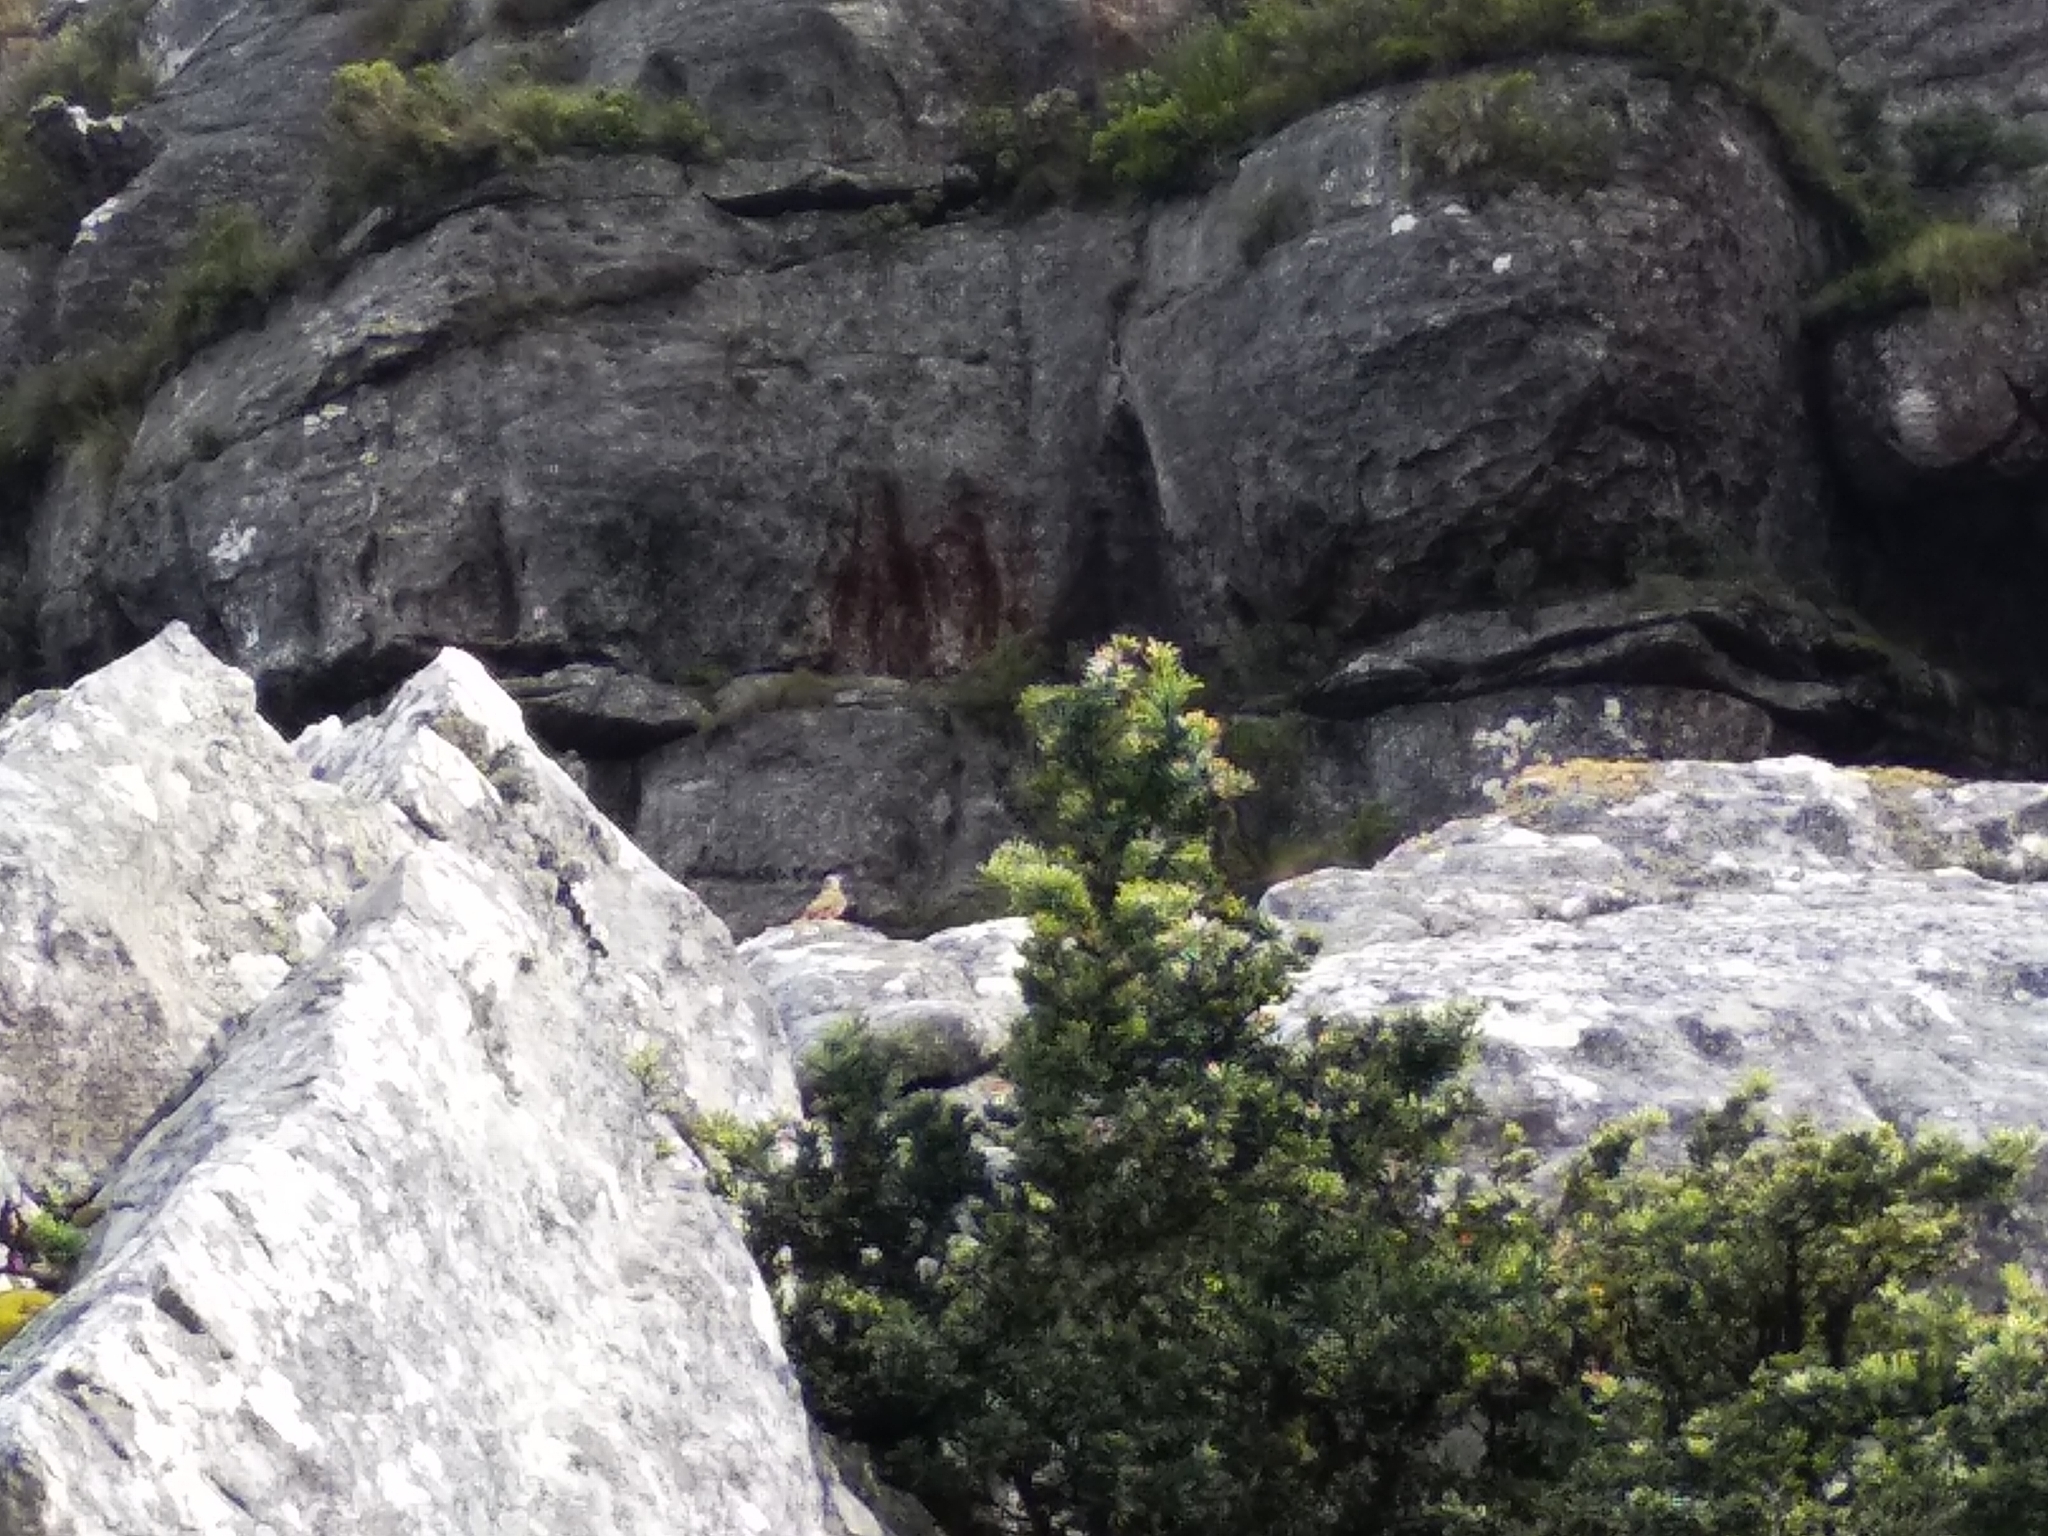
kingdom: Animalia
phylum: Chordata
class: Aves
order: Piciformes
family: Picidae
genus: Geocolaptes
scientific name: Geocolaptes olivaceus
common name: Ground woodpecker
